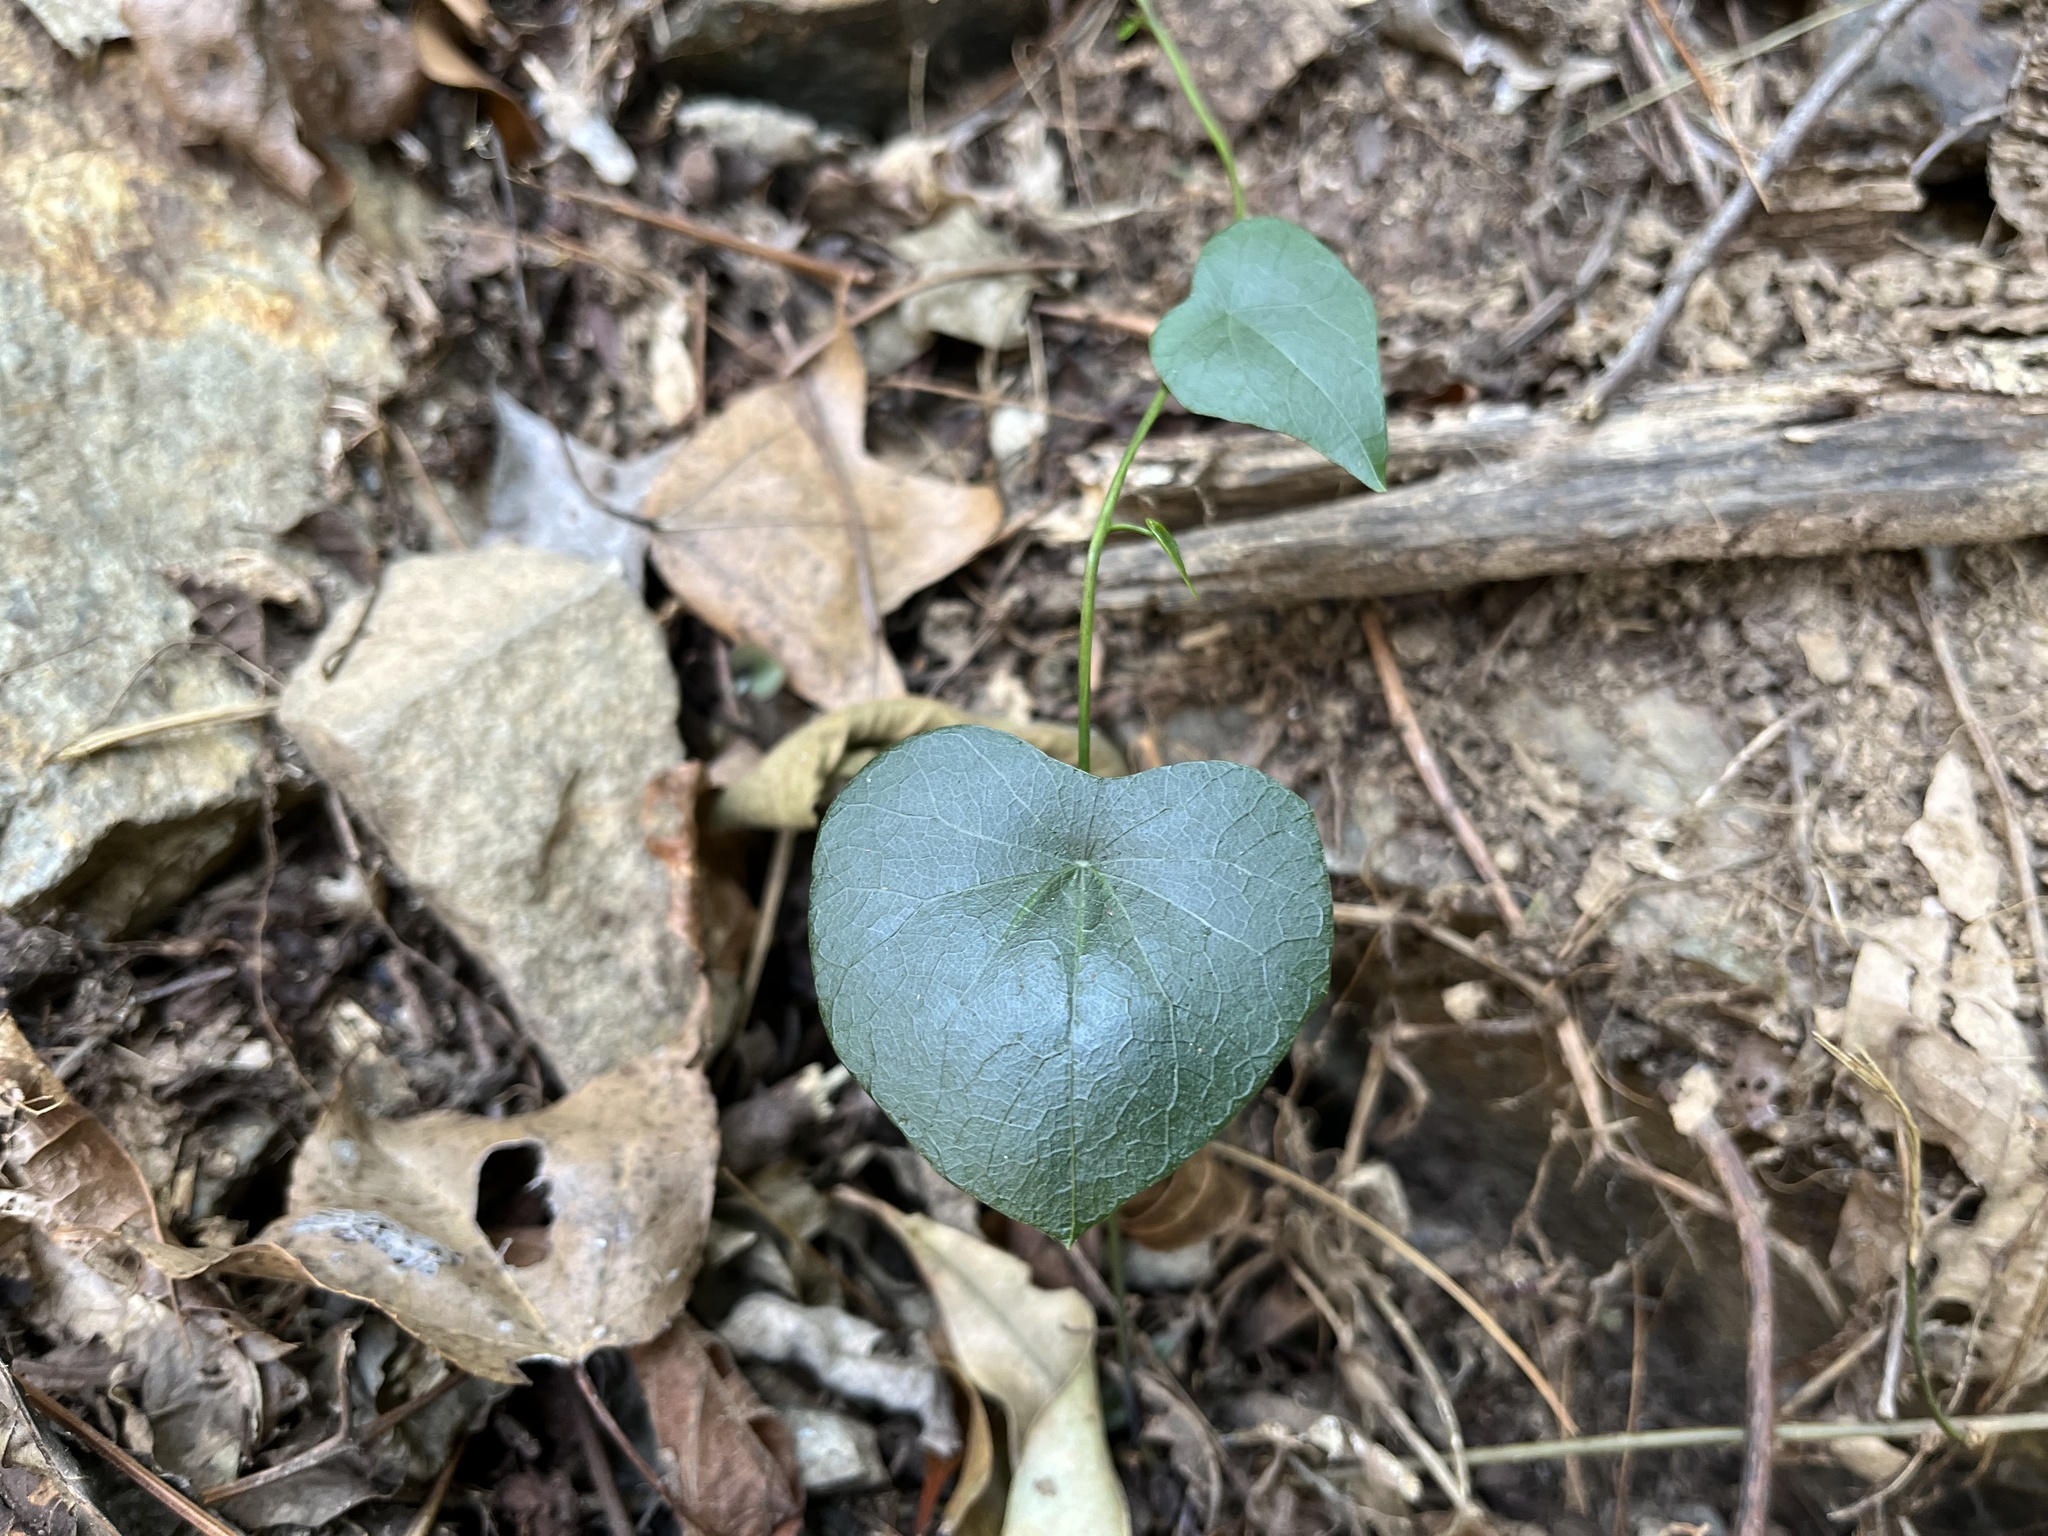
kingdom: Plantae
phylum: Tracheophyta
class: Magnoliopsida
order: Ranunculales
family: Menispermaceae
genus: Stephania
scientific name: Stephania japonica
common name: Snake vine
